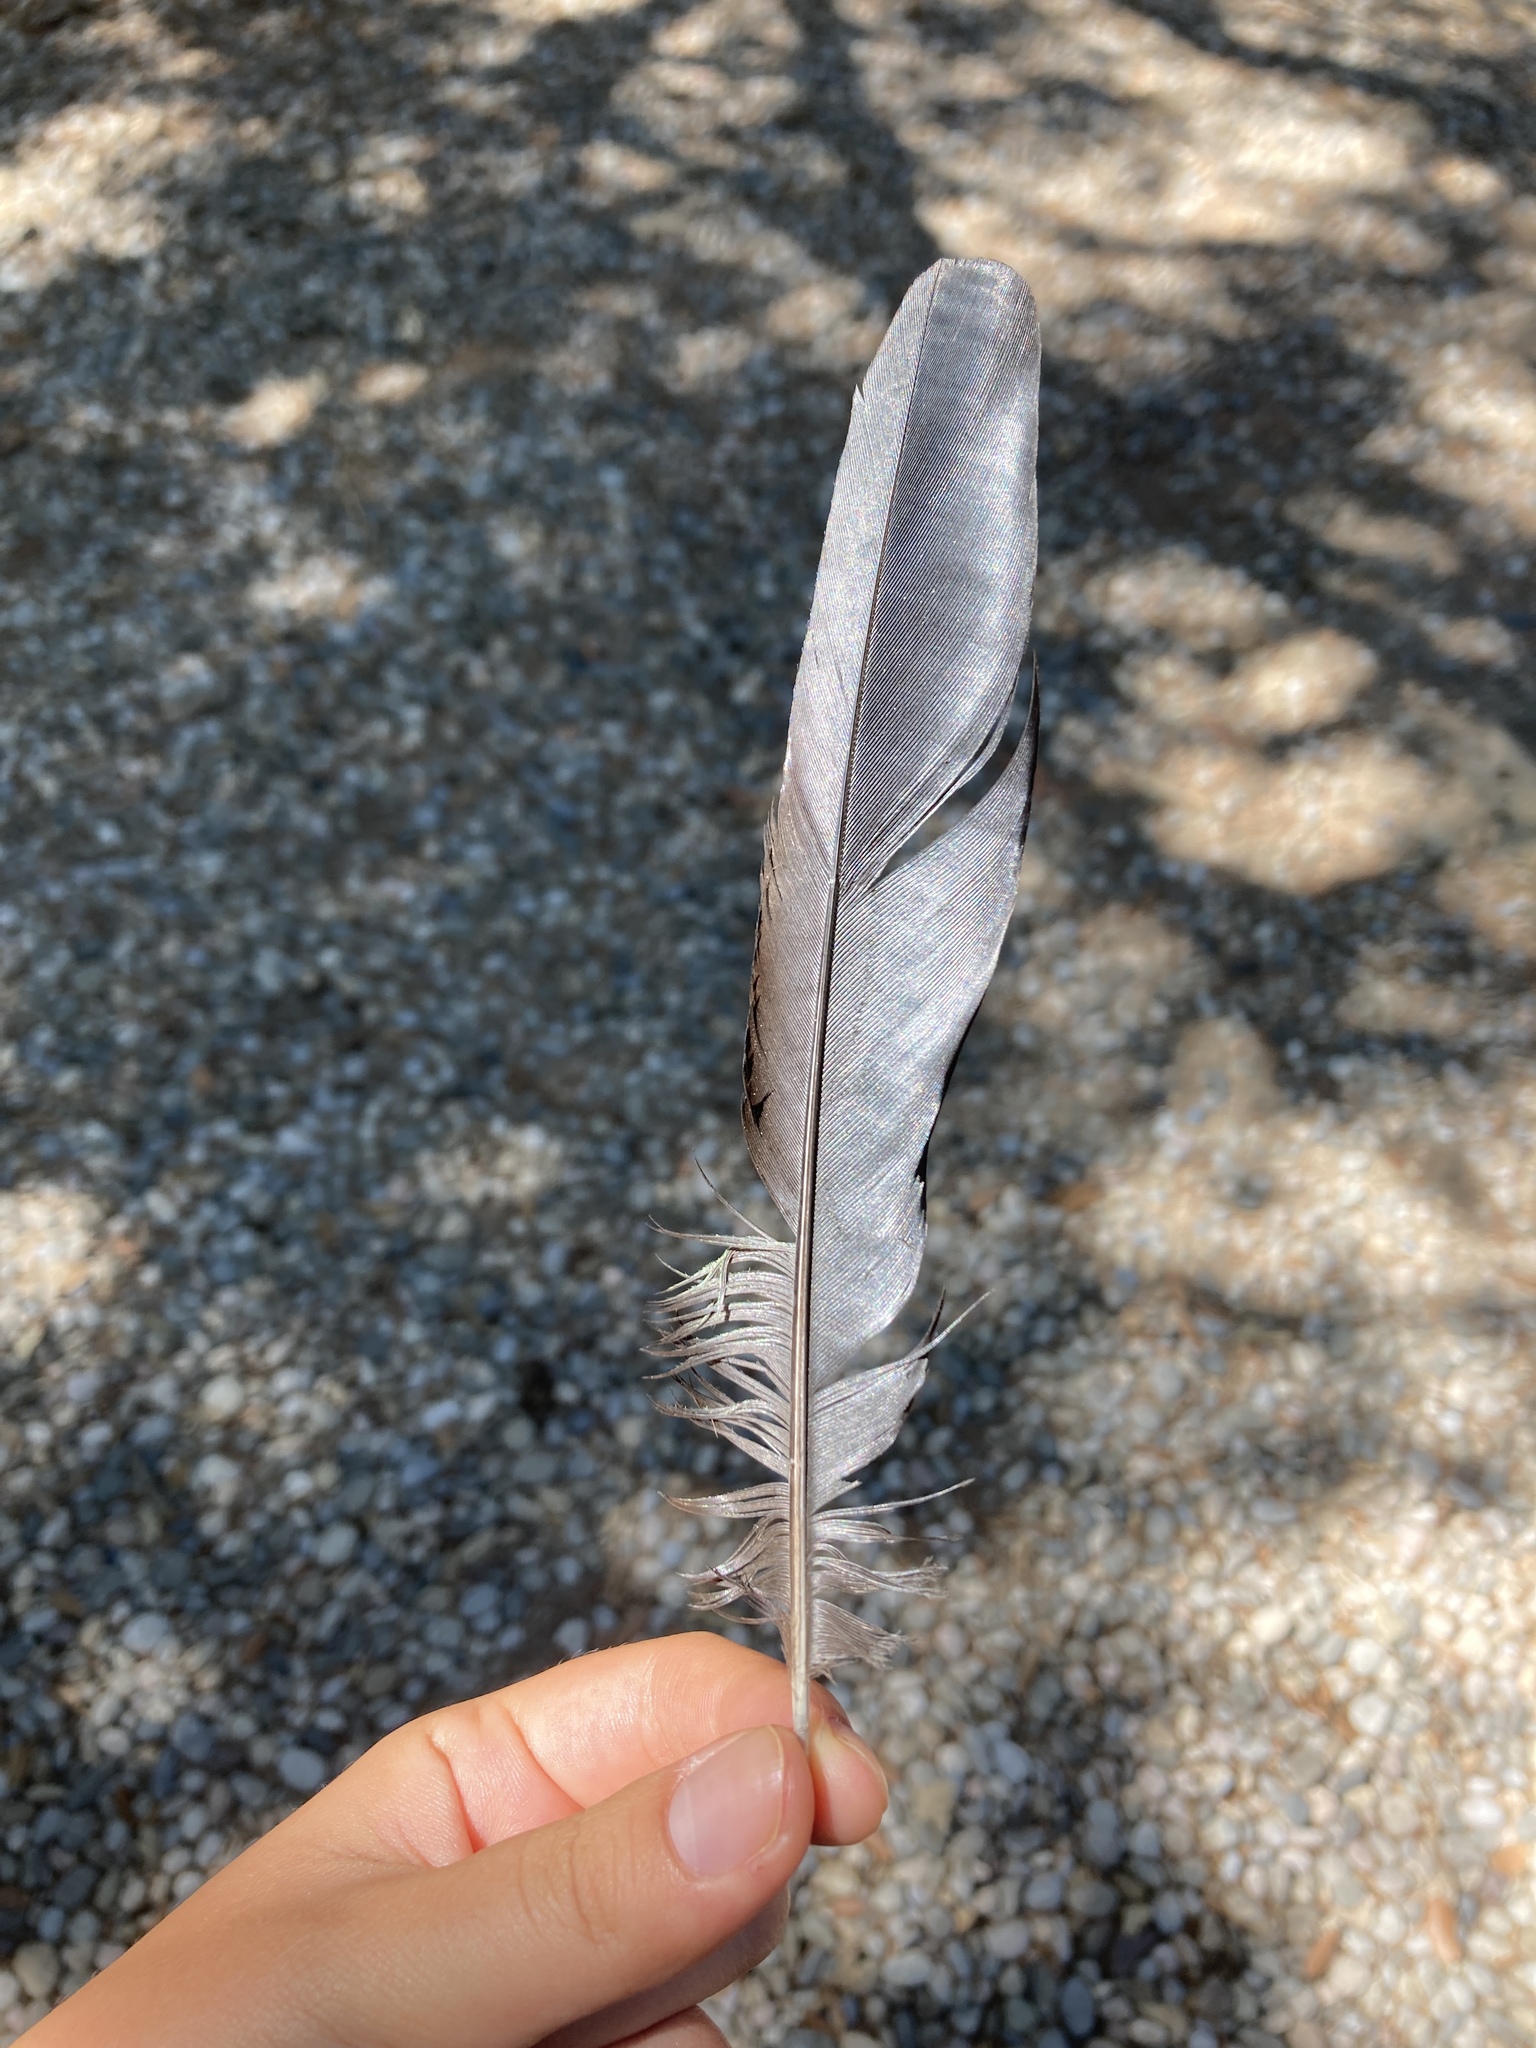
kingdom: Animalia
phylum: Chordata
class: Aves
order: Passeriformes
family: Corvidae
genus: Pica
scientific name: Pica pica
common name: Eurasian magpie
